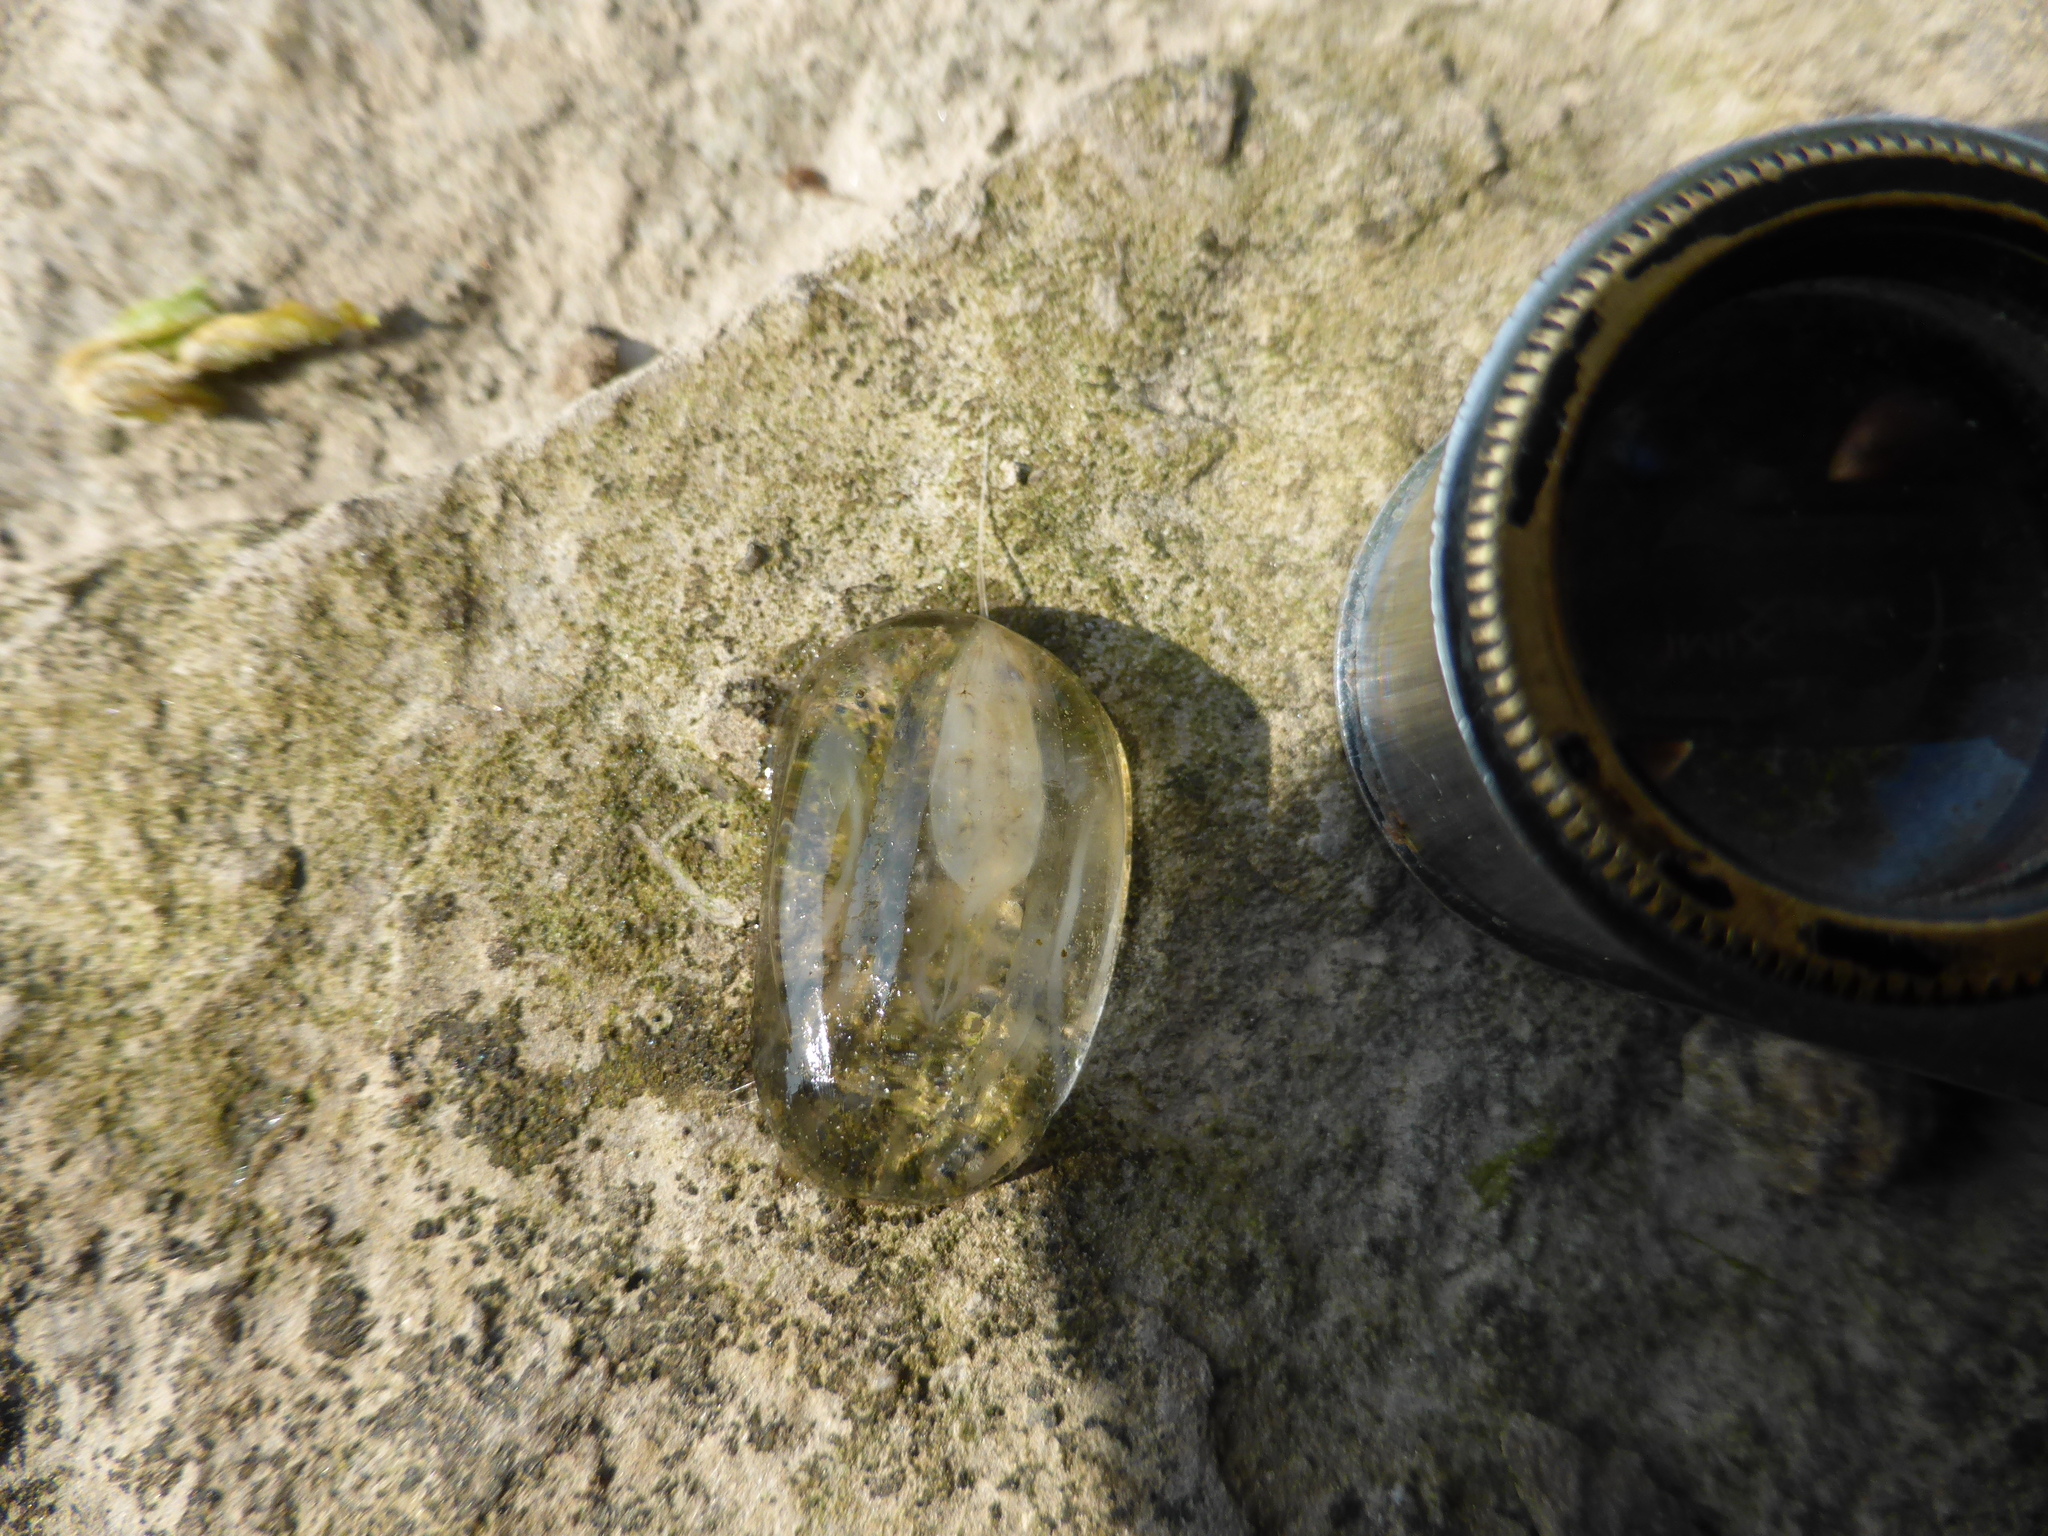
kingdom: Animalia
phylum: Ctenophora
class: Tentaculata
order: Cydippida
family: Pleurobrachiidae
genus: Pleurobrachia
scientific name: Pleurobrachia pileus
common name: Sea gooseberry
